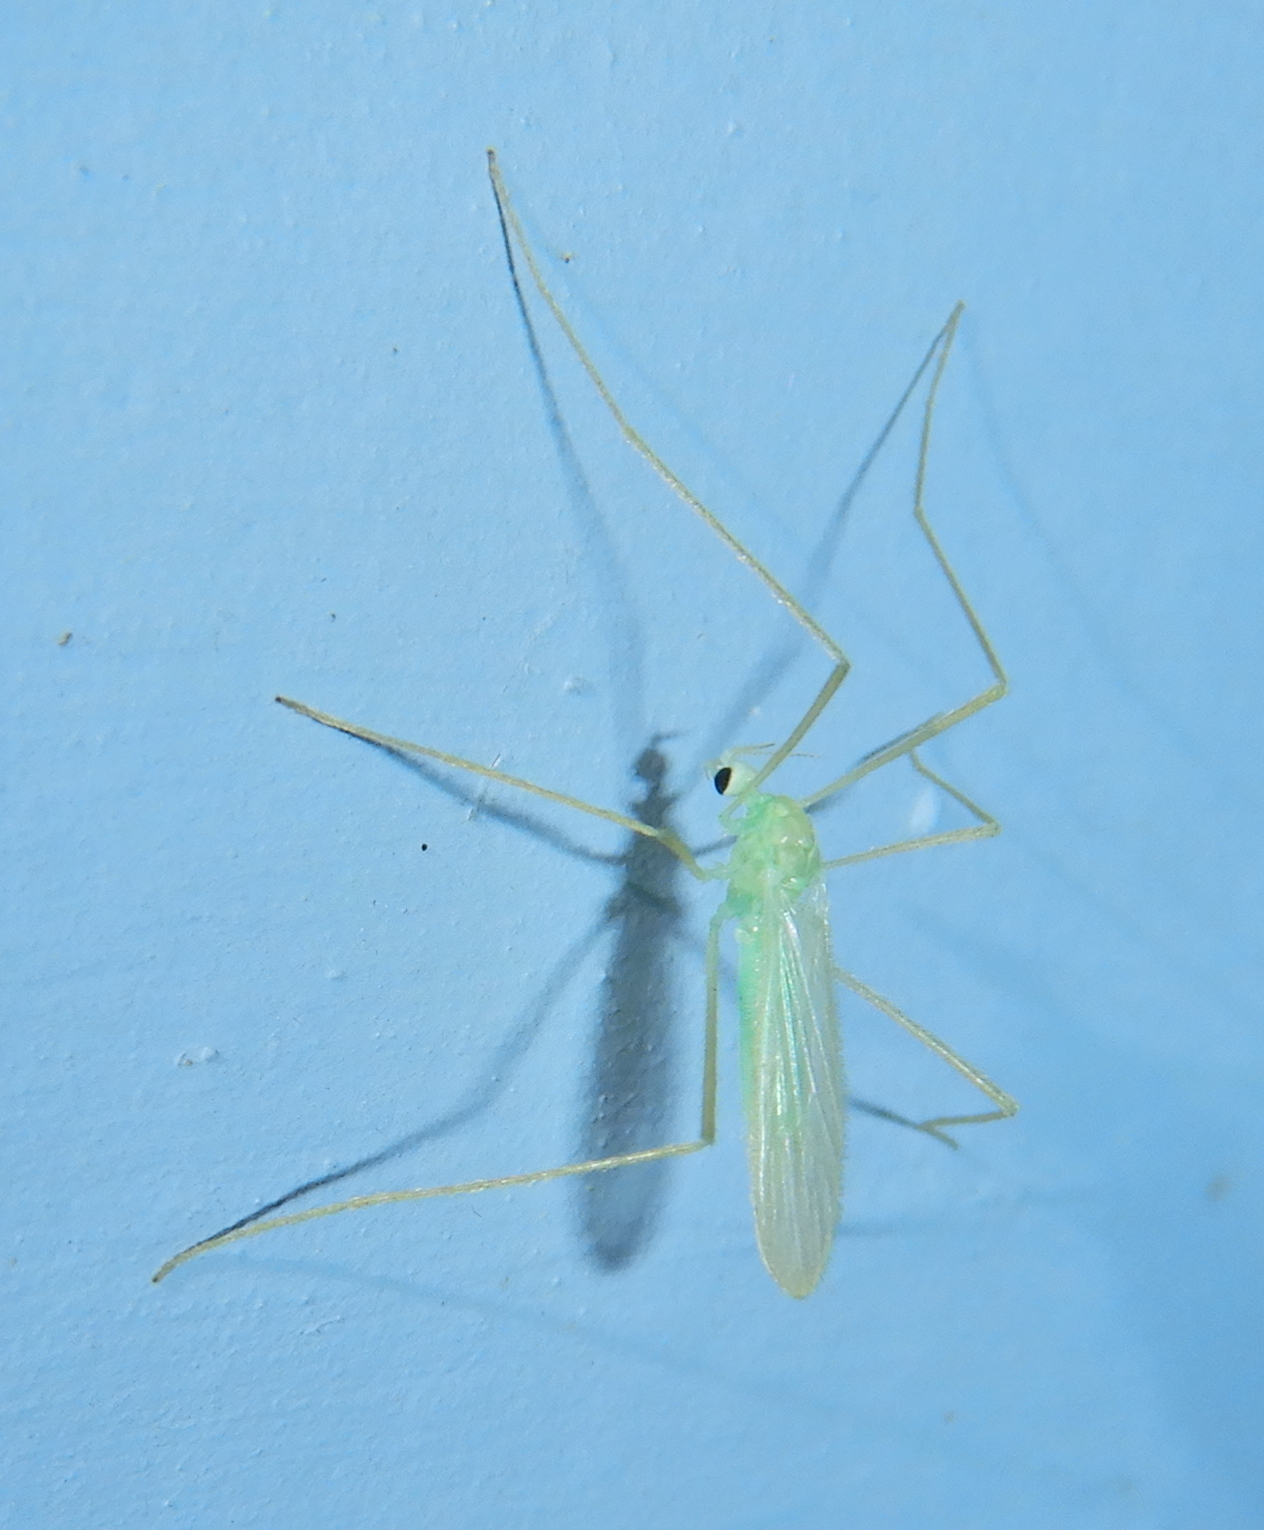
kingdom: Animalia
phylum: Arthropoda
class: Insecta
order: Diptera
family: Limoniidae
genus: Erioptera
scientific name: Erioptera
